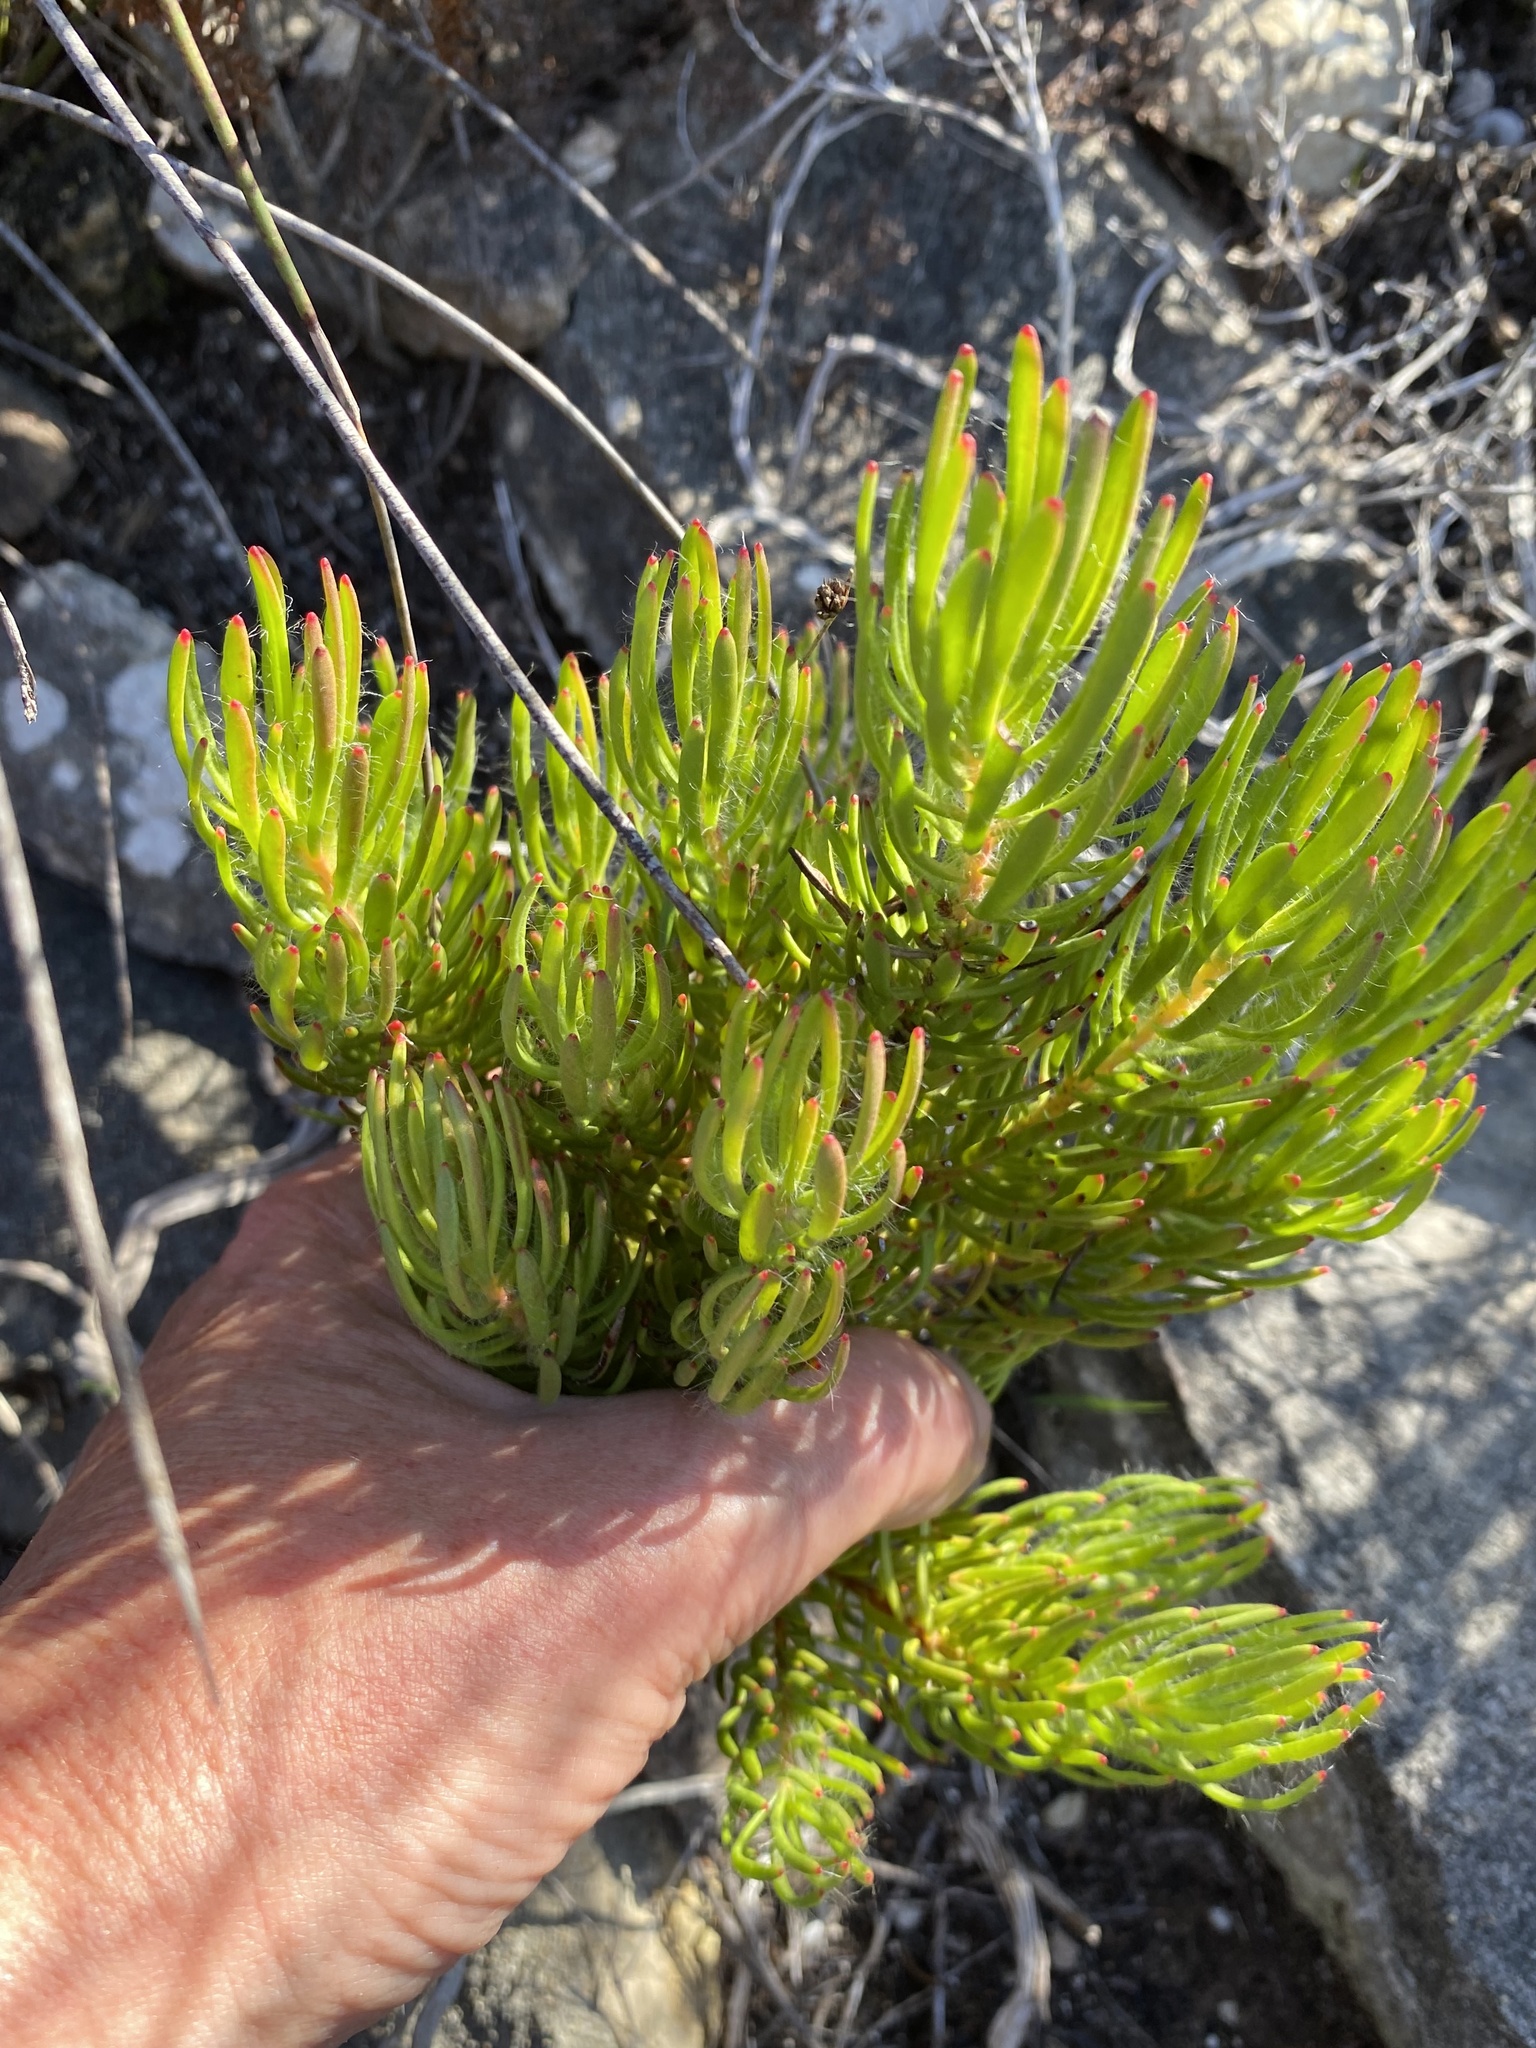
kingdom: Plantae
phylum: Tracheophyta
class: Magnoliopsida
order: Proteales
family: Proteaceae
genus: Leucadendron
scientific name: Leucadendron muirii
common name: Silver-ball conebush
